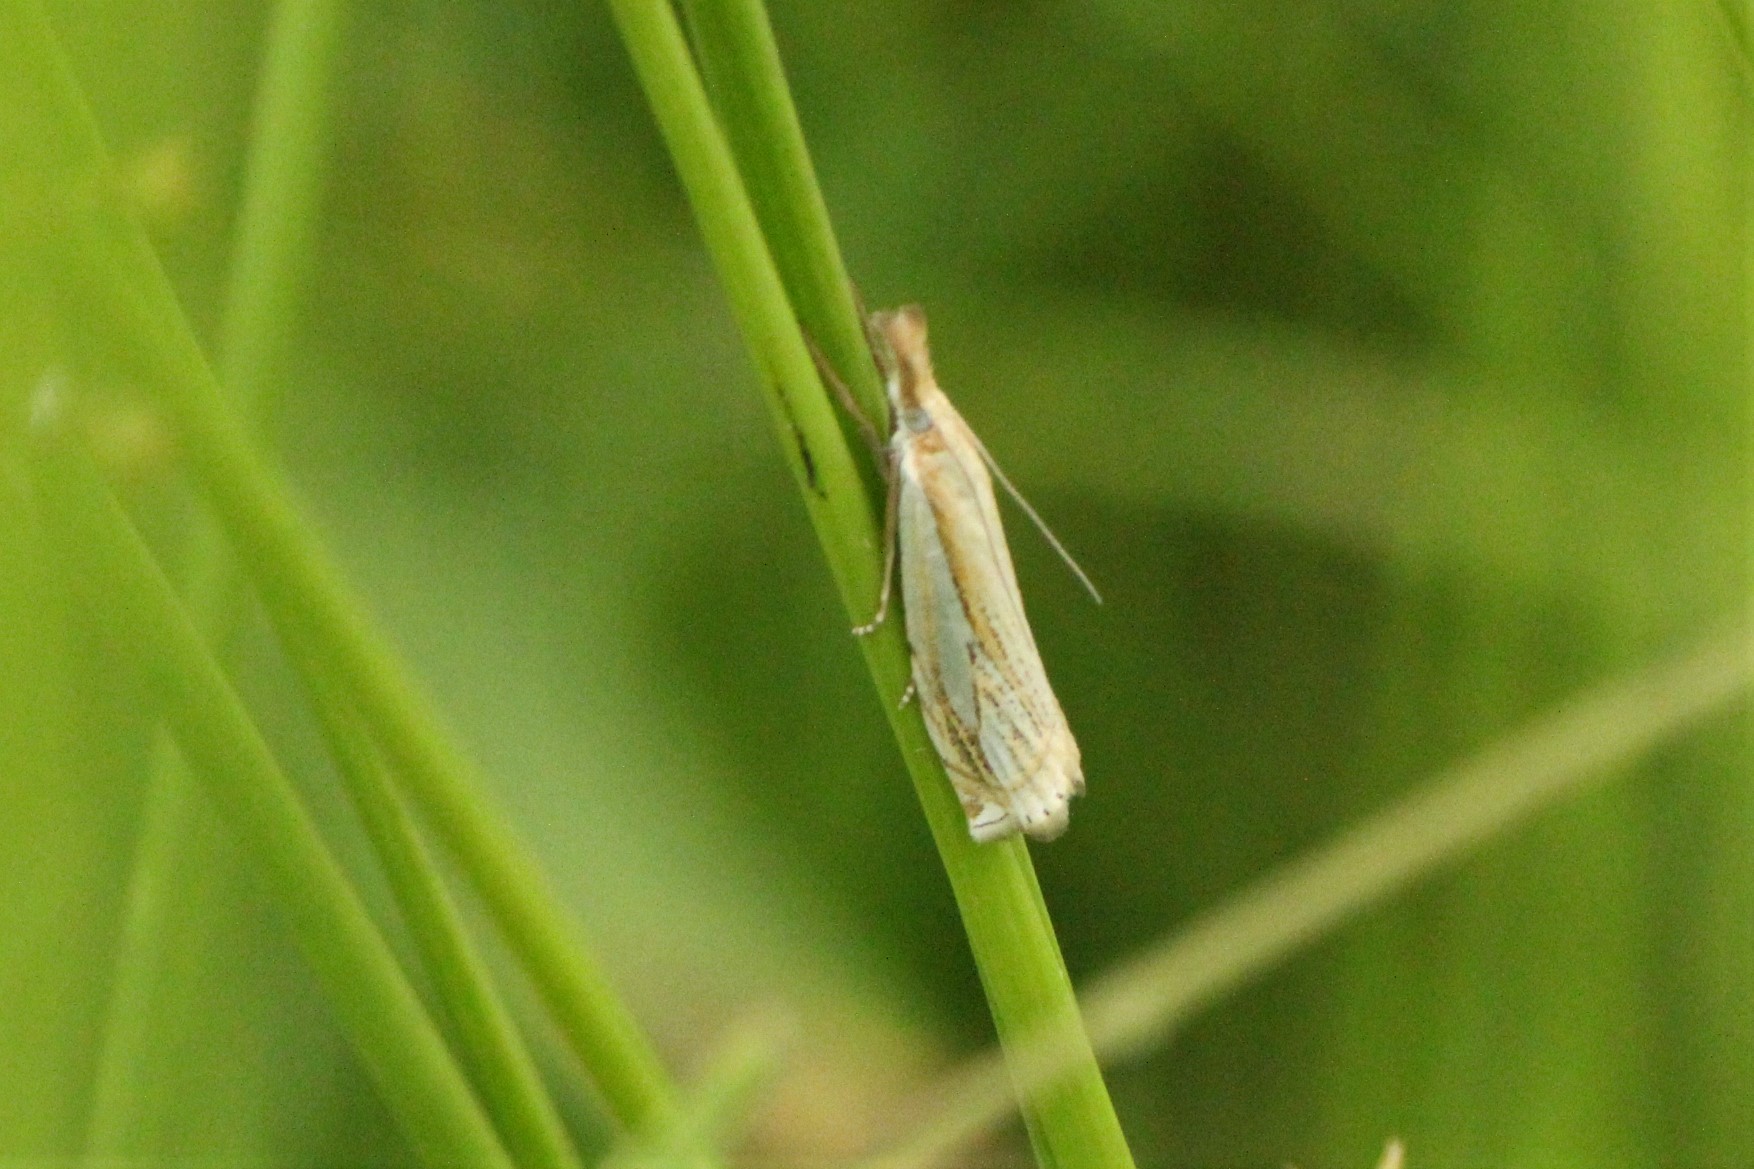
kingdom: Animalia
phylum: Arthropoda
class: Insecta
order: Lepidoptera
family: Crambidae
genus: Crambus
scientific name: Crambus saltuellus
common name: Pasture grass-veneer
